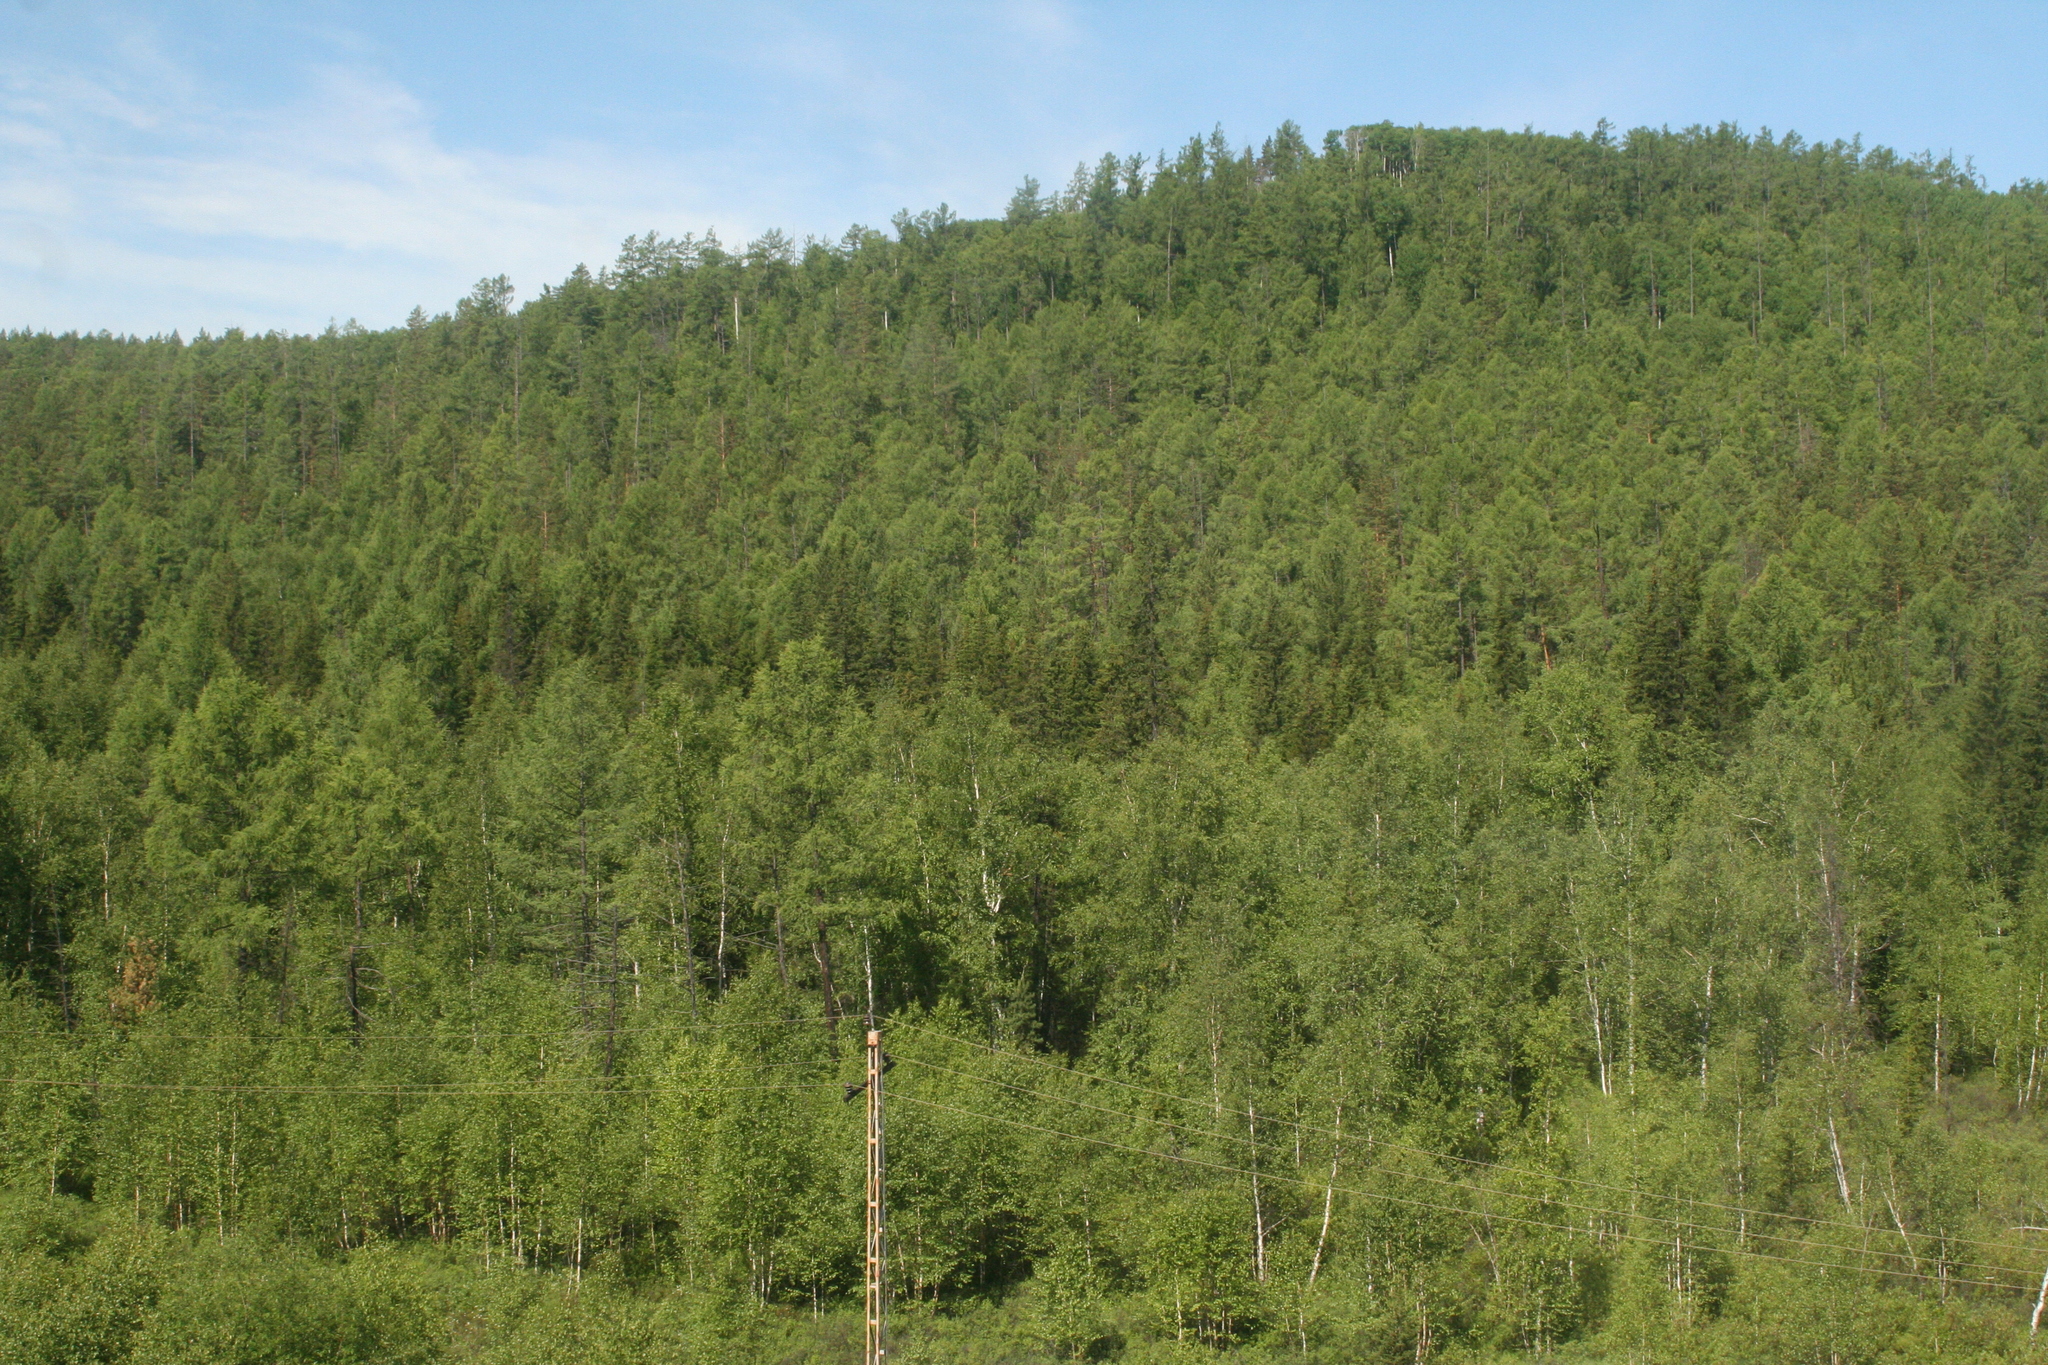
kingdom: Plantae
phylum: Tracheophyta
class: Pinopsida
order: Pinales
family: Pinaceae
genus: Pinus
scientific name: Pinus sibirica
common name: Siberian pine
